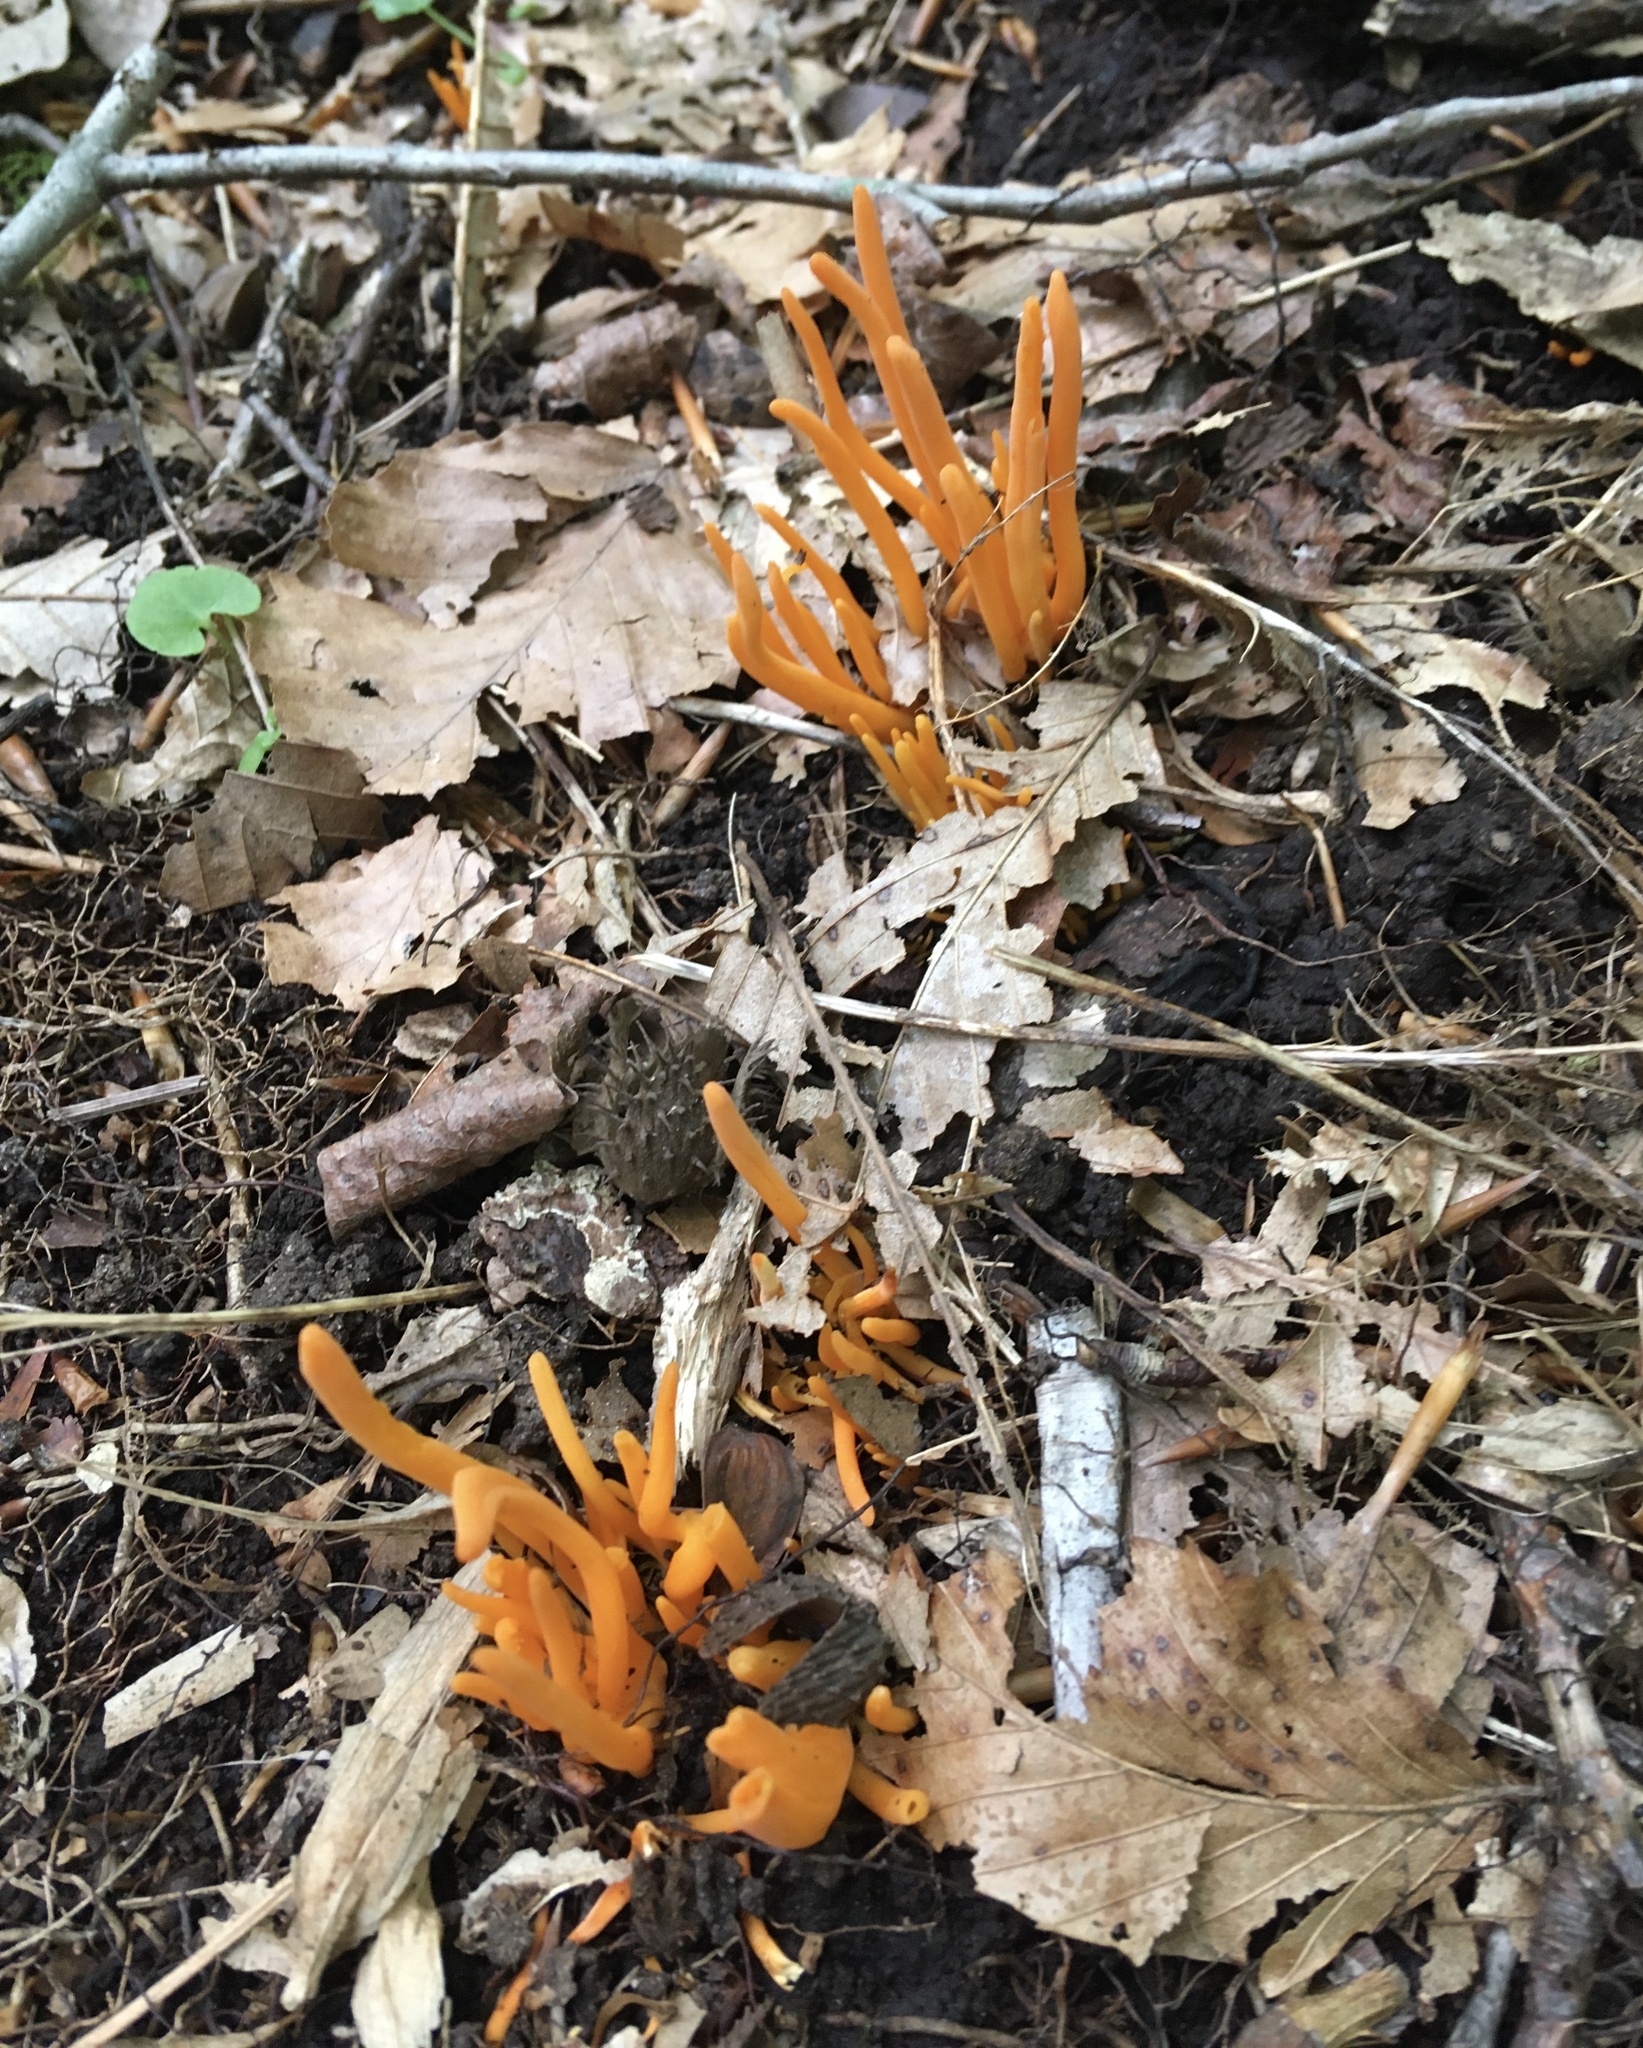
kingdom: Fungi
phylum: Basidiomycota
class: Agaricomycetes
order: Agaricales
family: Clavariaceae
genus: Clavulinopsis
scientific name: Clavulinopsis aurantiocinnabarina
